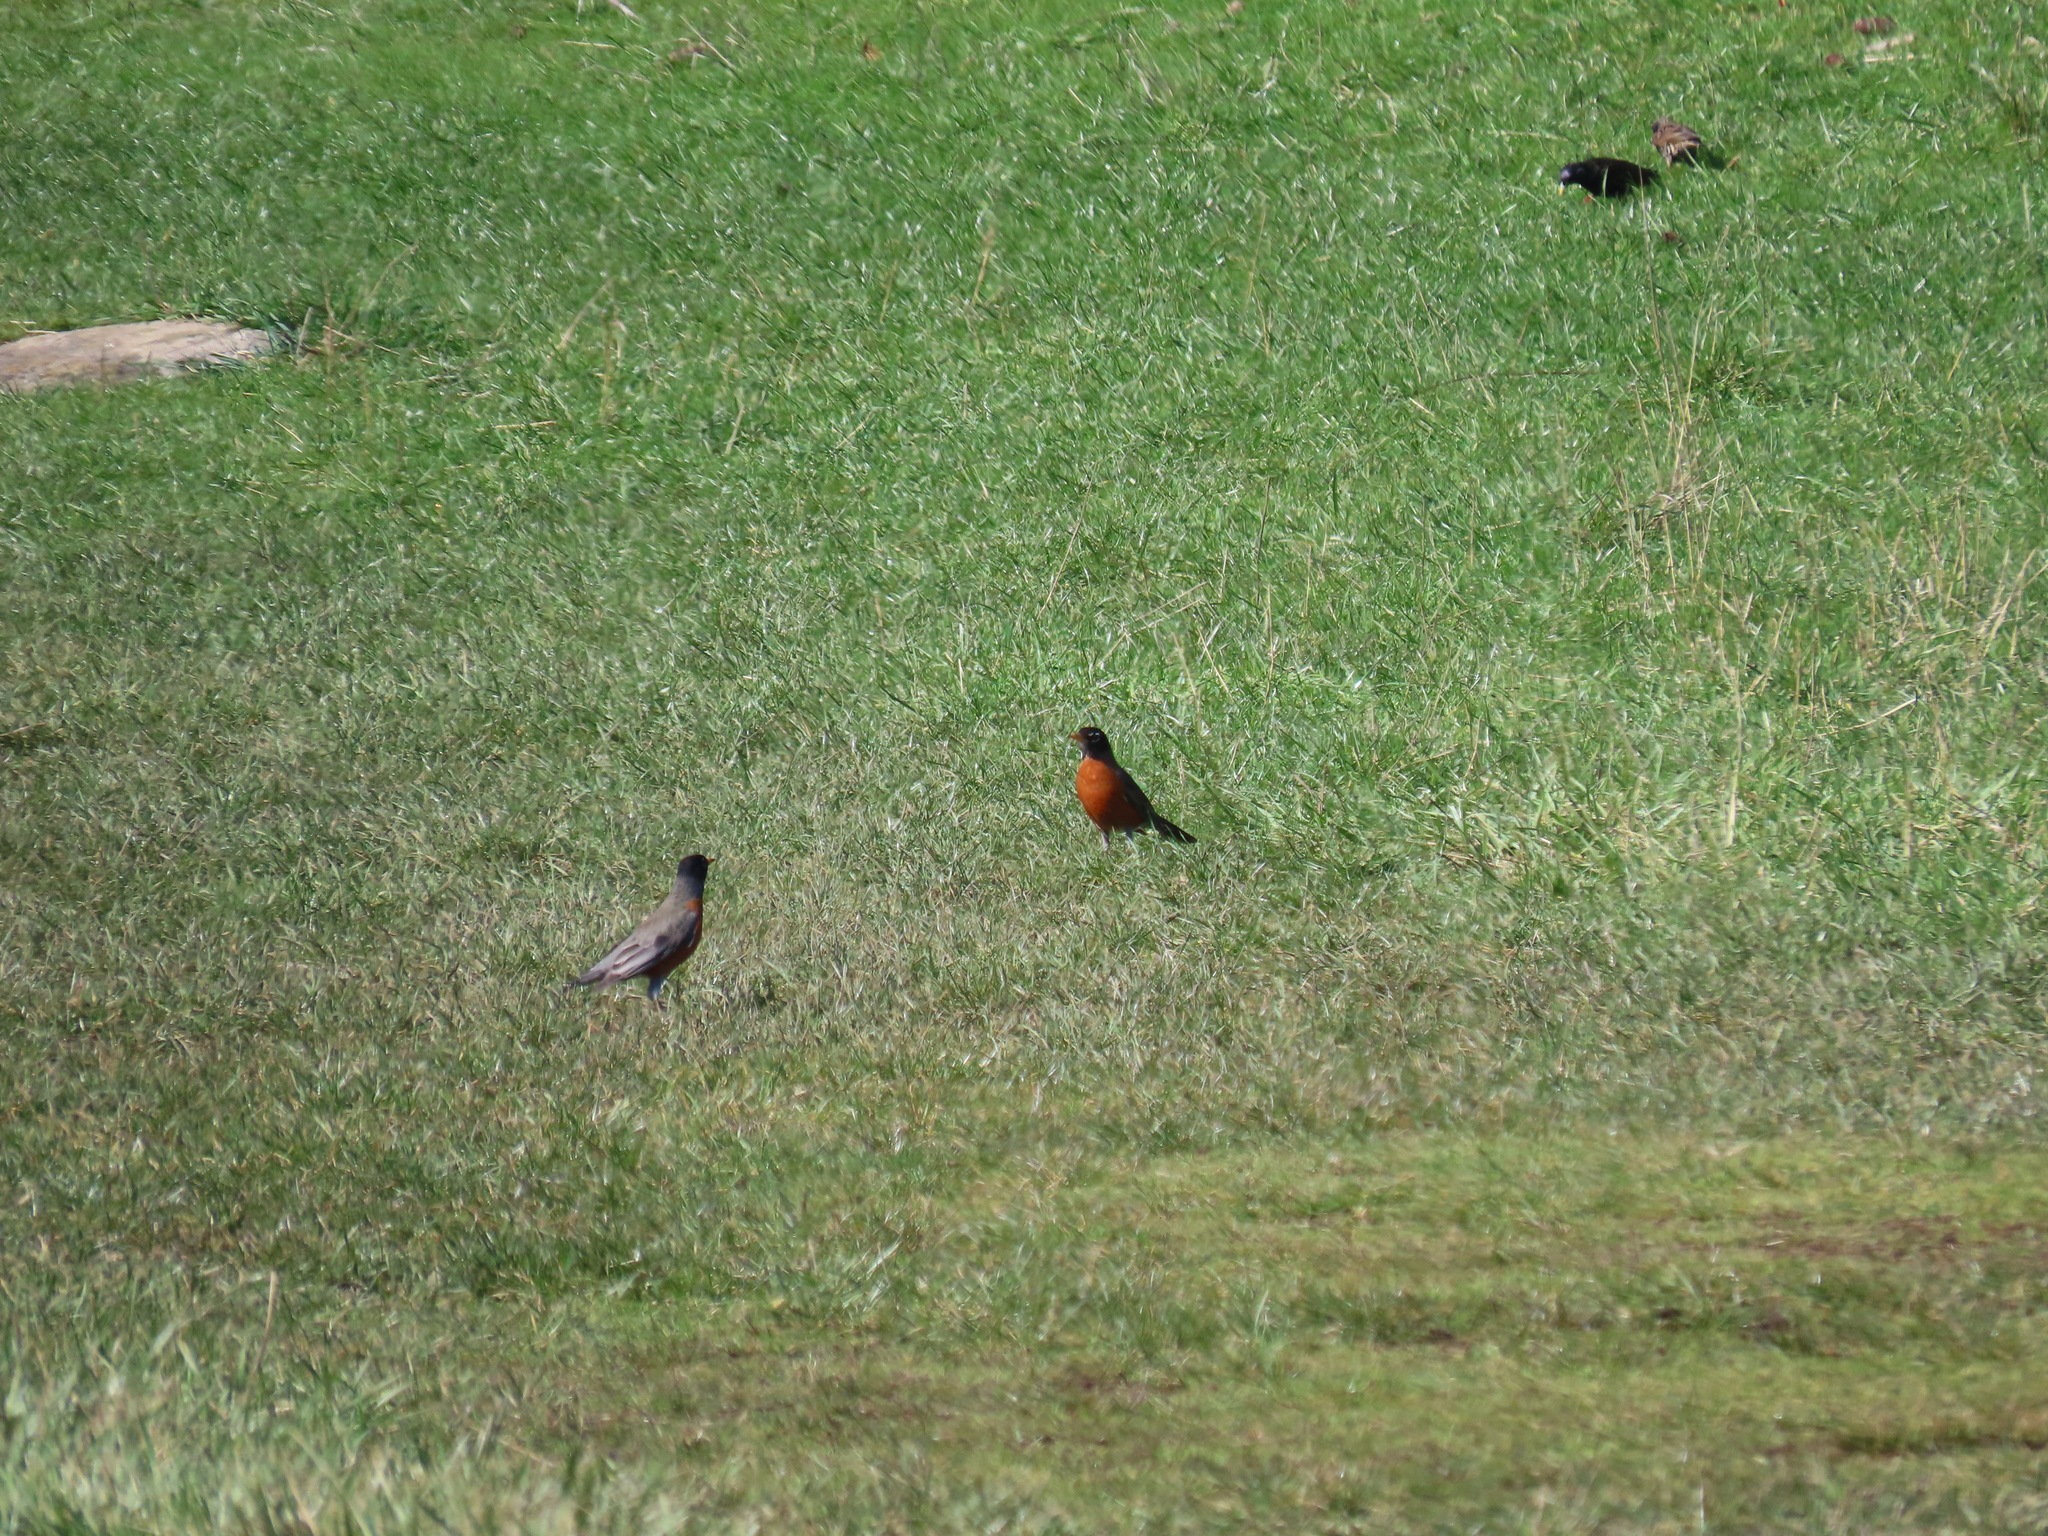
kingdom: Animalia
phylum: Chordata
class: Aves
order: Passeriformes
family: Turdidae
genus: Turdus
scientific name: Turdus migratorius
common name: American robin
